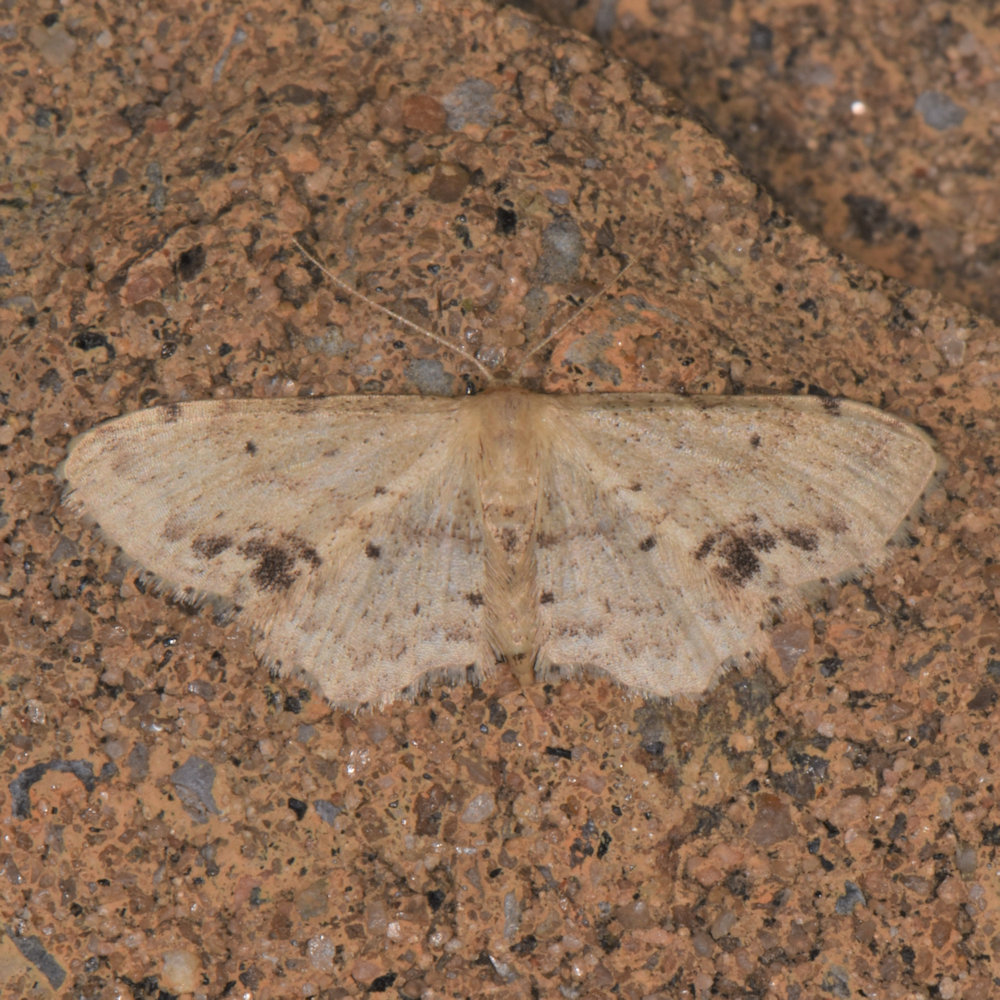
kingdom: Animalia
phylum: Arthropoda
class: Insecta
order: Lepidoptera
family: Geometridae
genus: Idaea
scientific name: Idaea dimidiata
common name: Single-dotted wave
